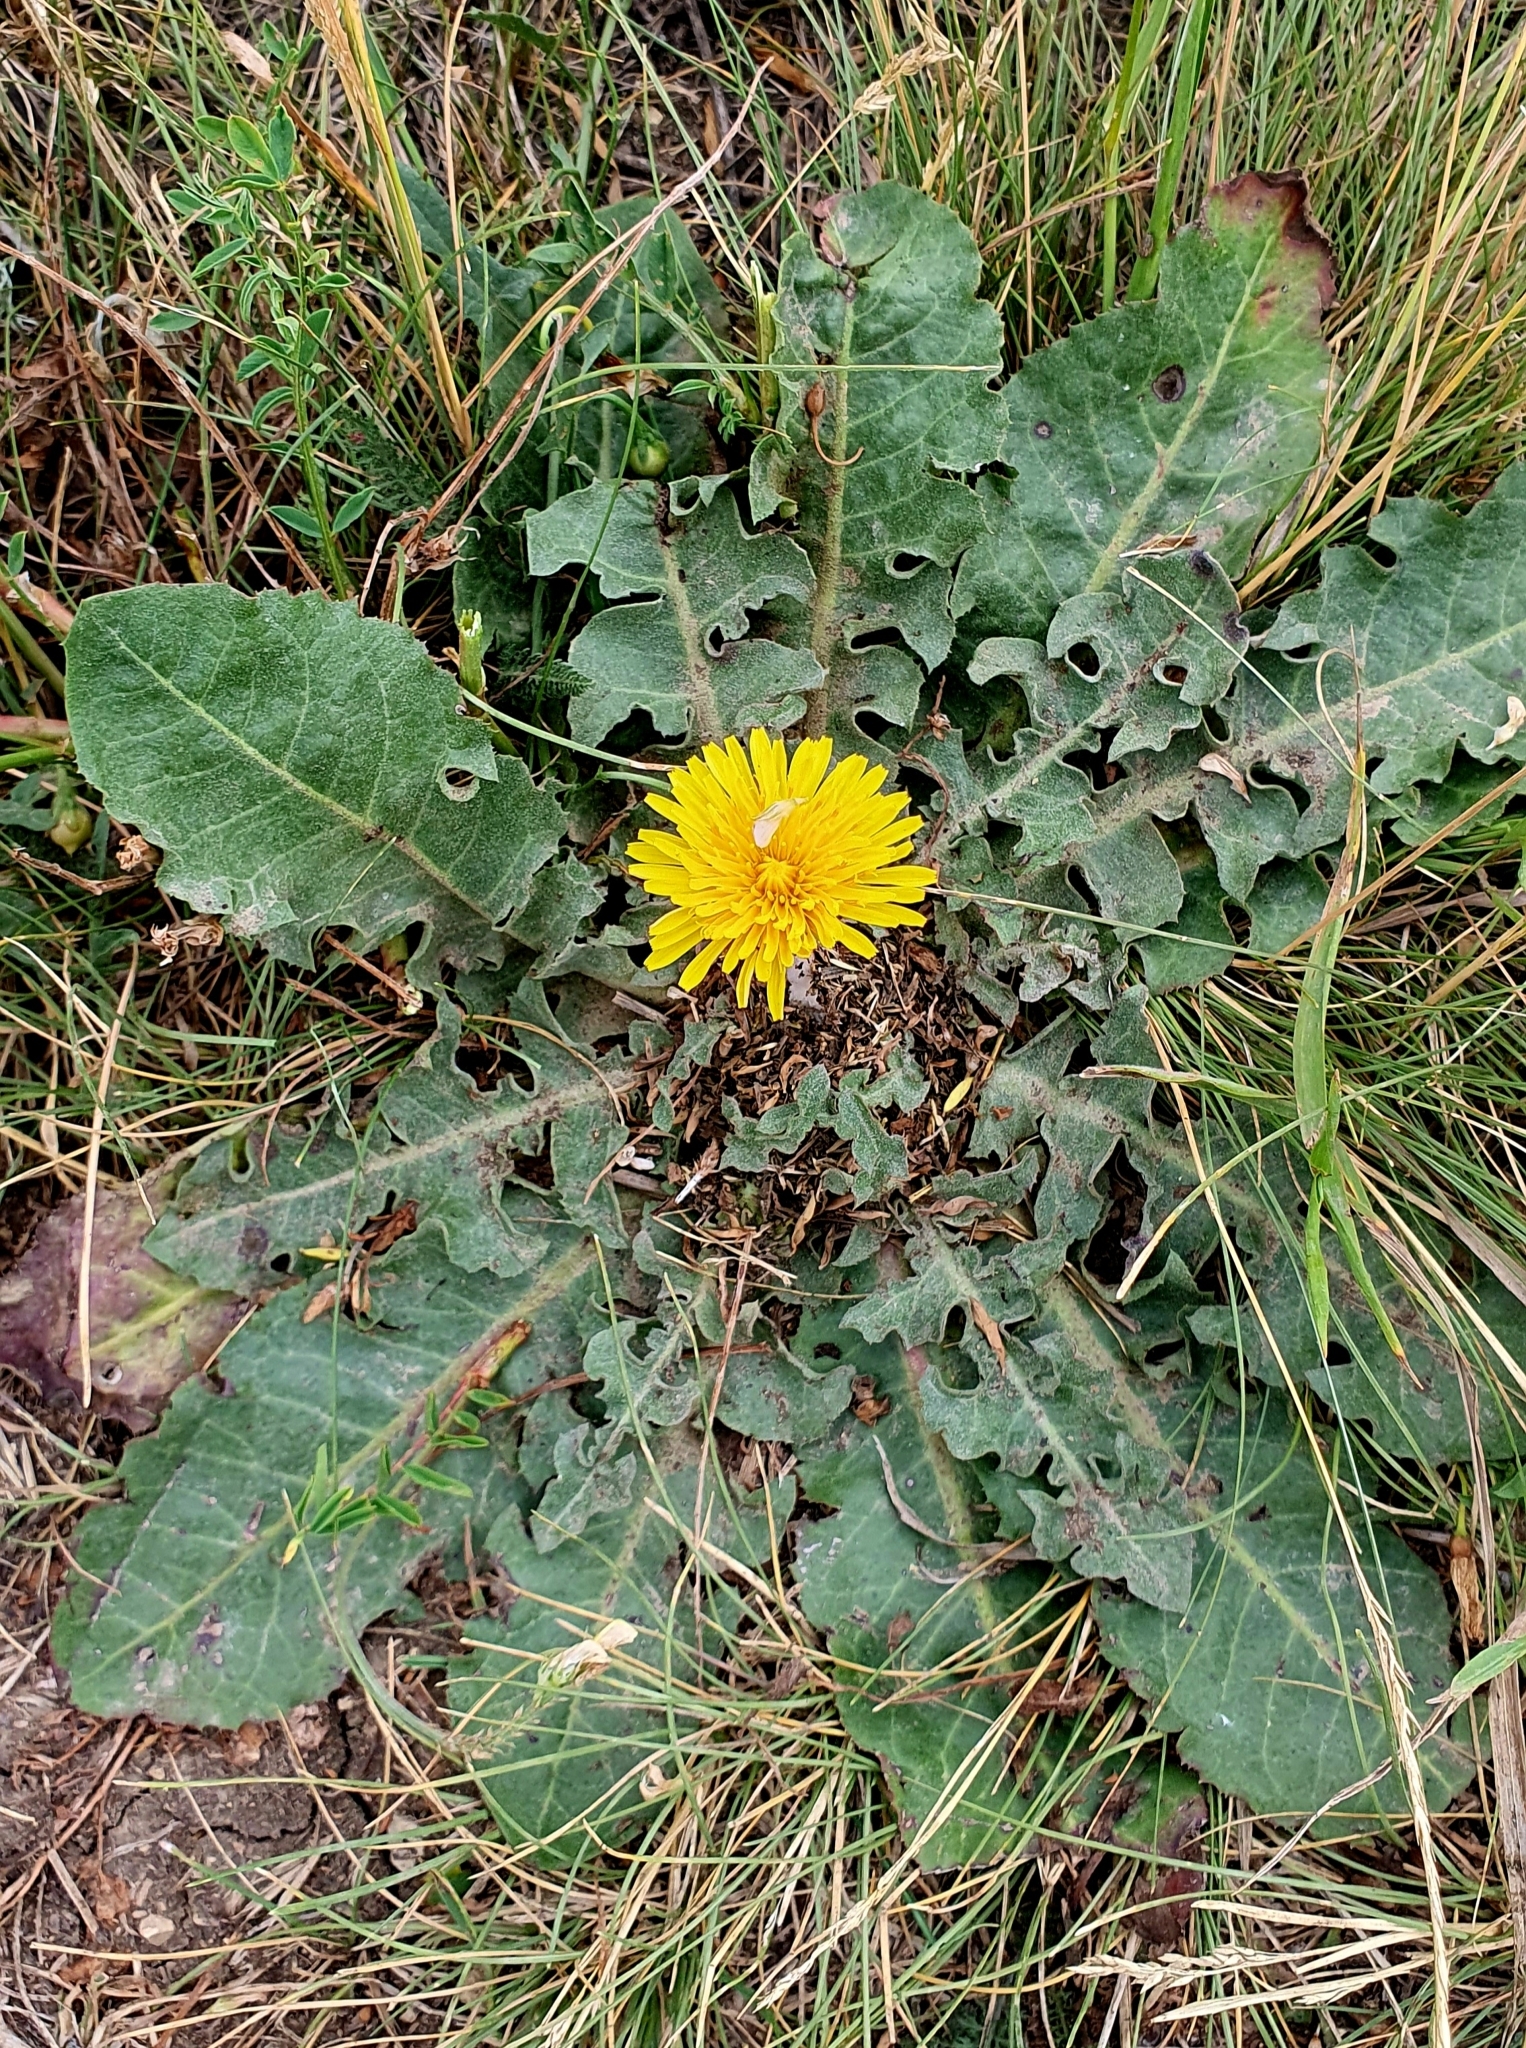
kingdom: Plantae
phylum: Tracheophyta
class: Magnoliopsida
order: Asterales
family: Asteraceae
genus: Taraxacum
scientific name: Taraxacum serotinum
